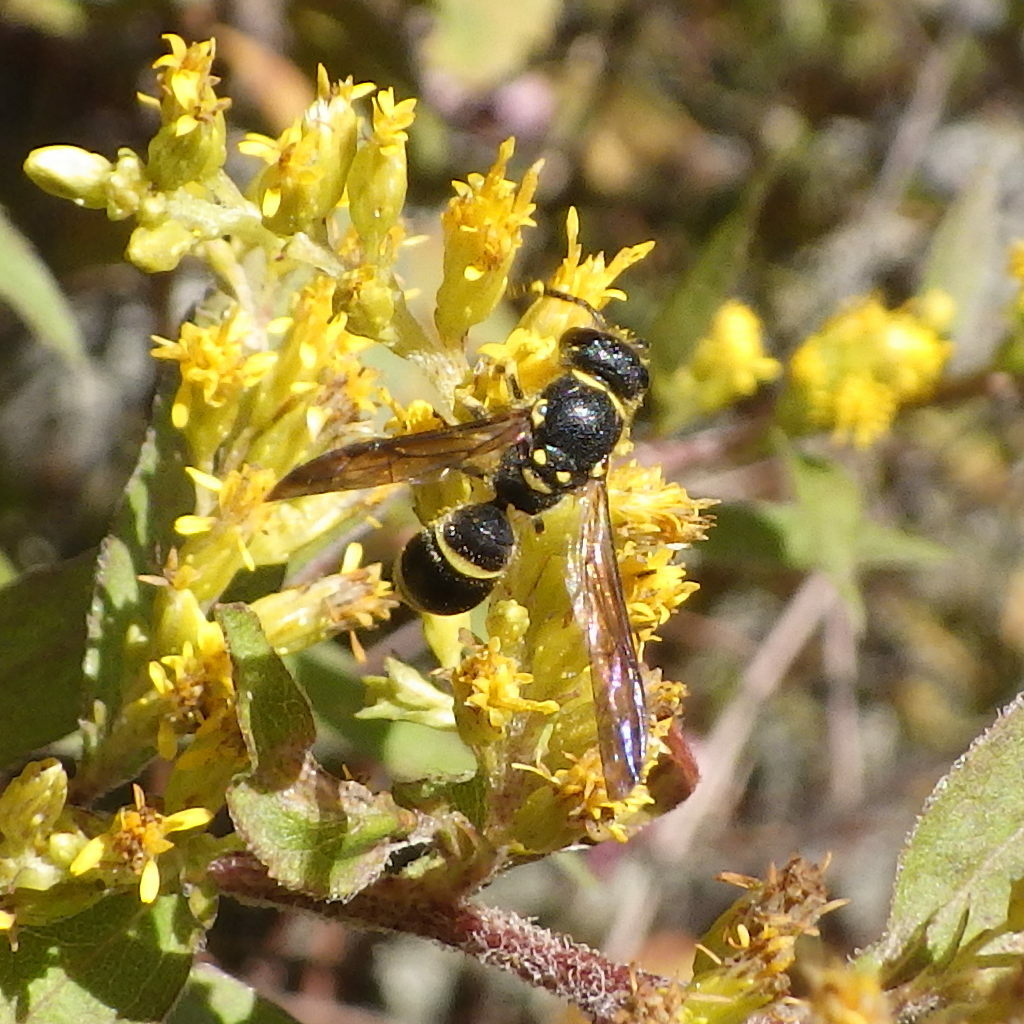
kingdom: Animalia
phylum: Arthropoda
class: Insecta
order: Hymenoptera
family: Vespidae
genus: Ancistrocerus
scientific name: Ancistrocerus adiabatus
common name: Bramble mason wasp
